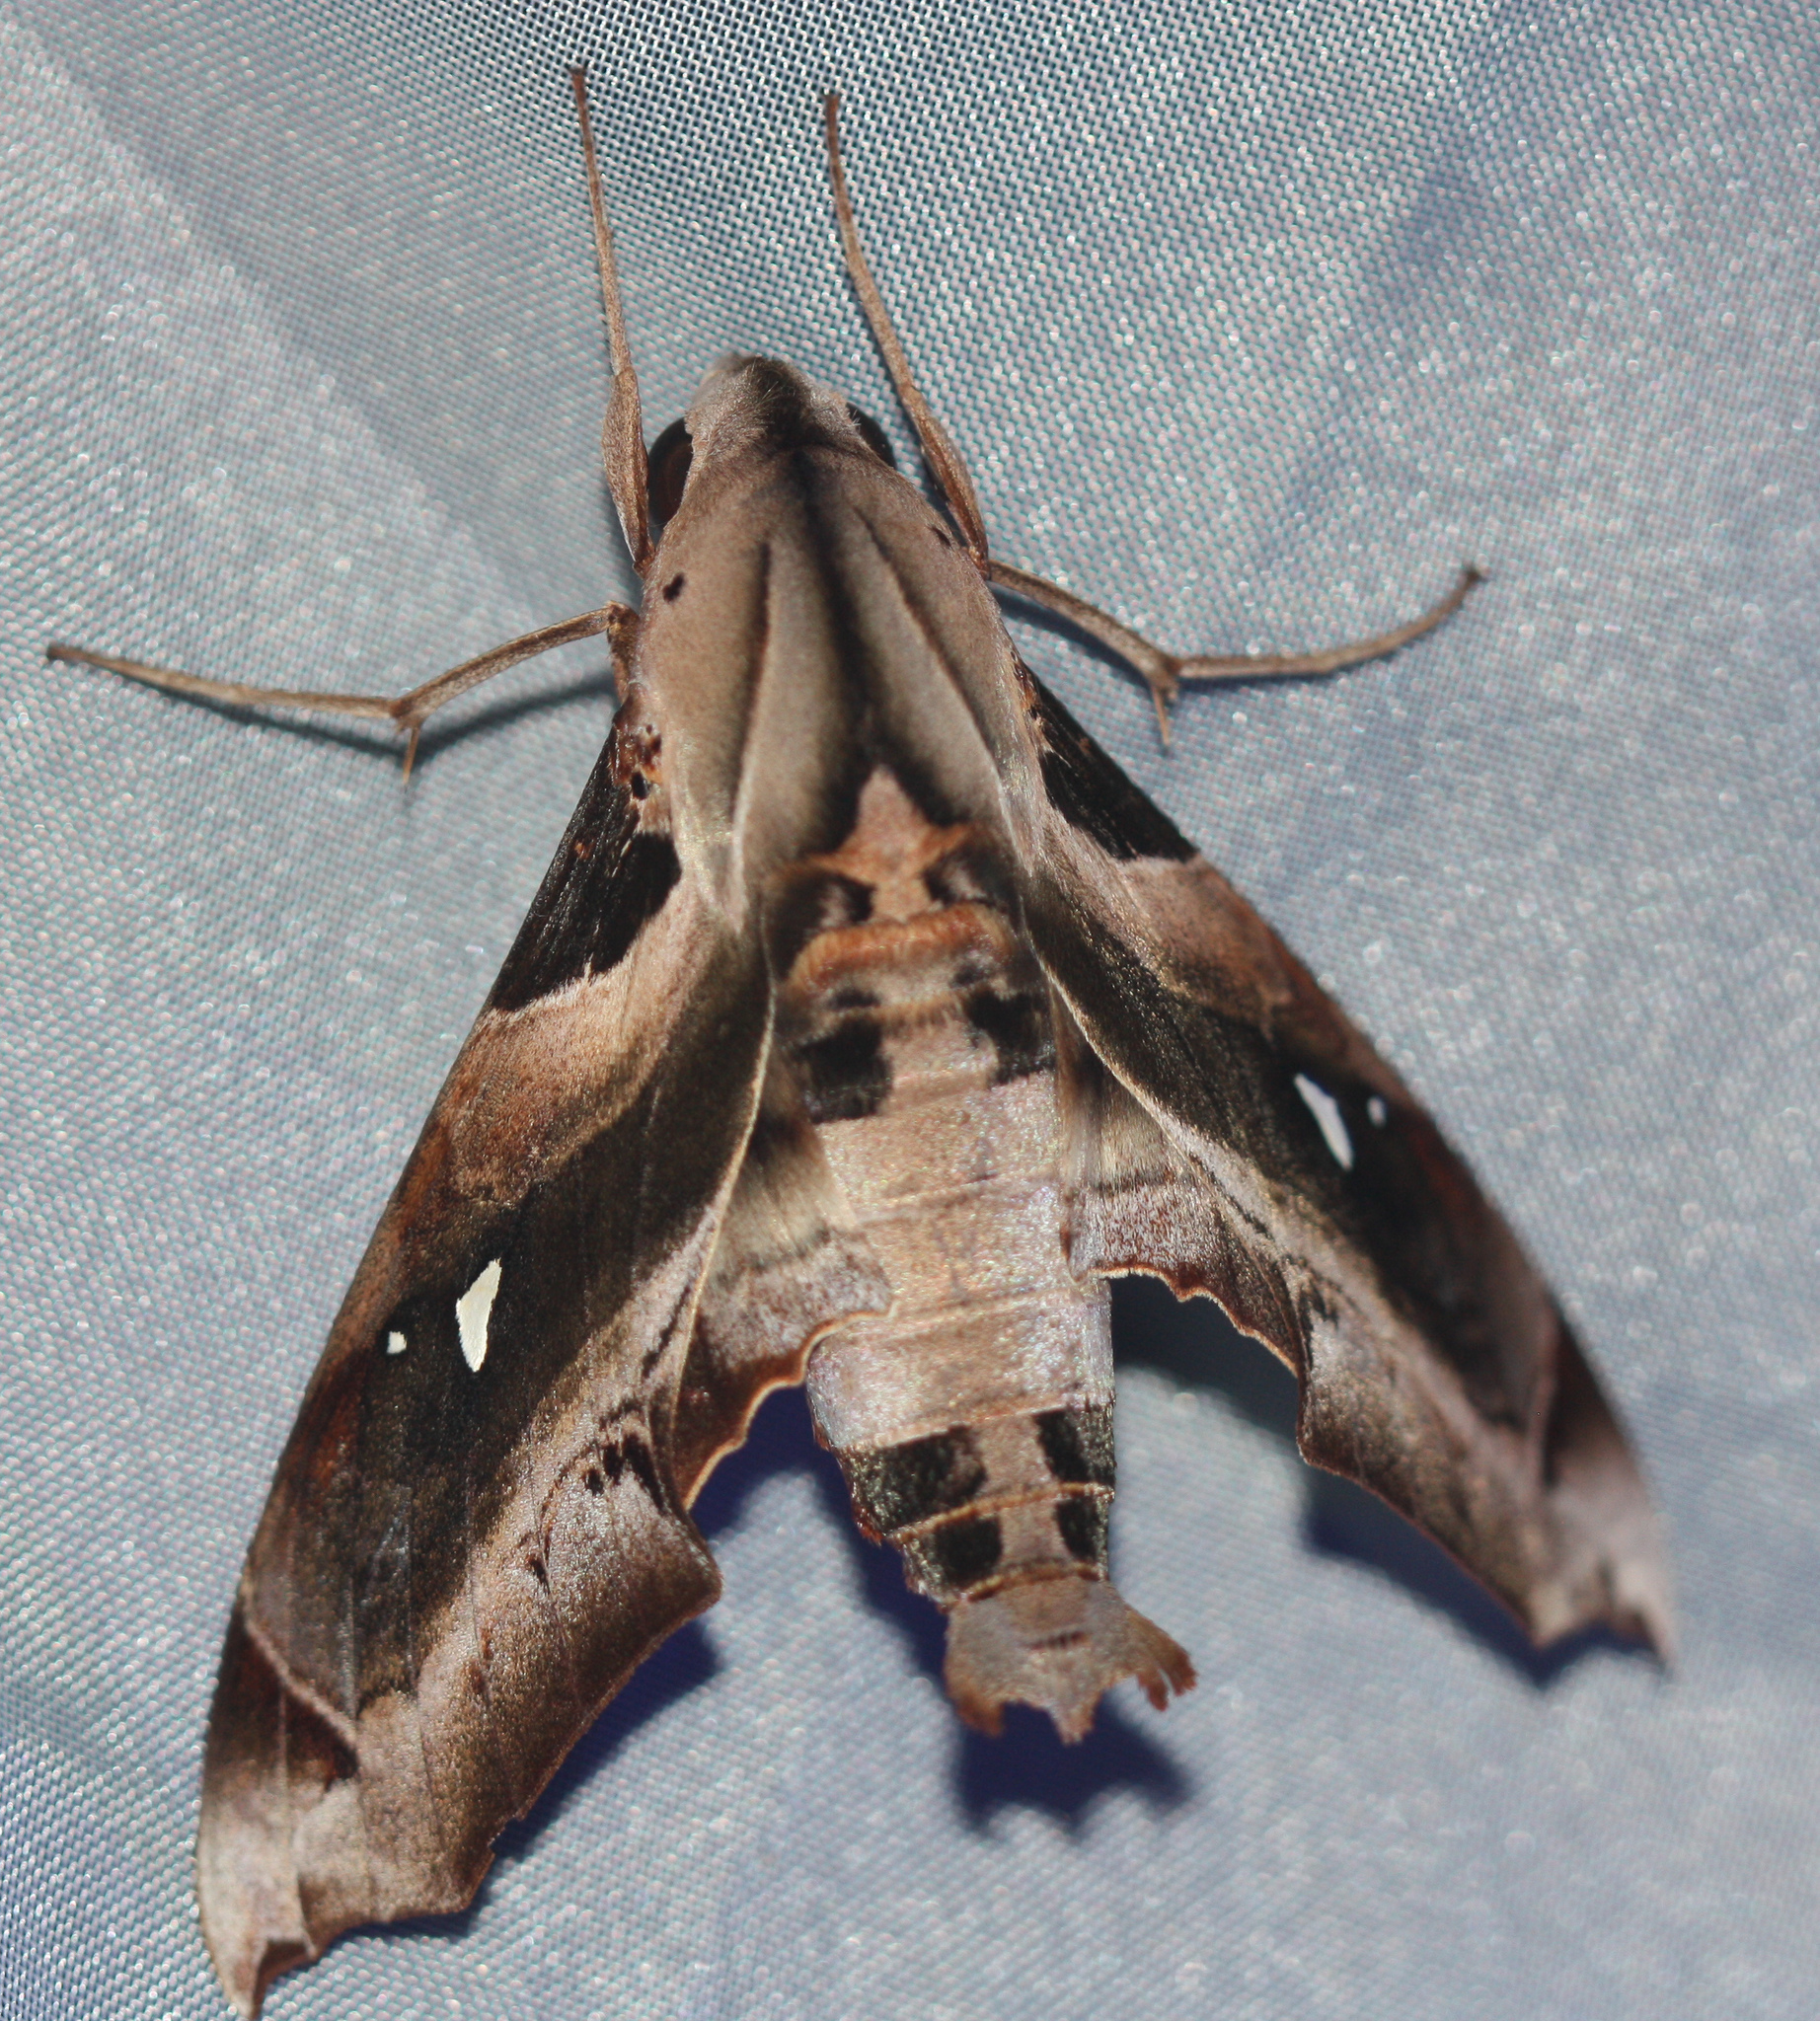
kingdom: Animalia
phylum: Arthropoda
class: Insecta
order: Lepidoptera
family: Sphingidae
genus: Madoryx
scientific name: Madoryx plutonius
